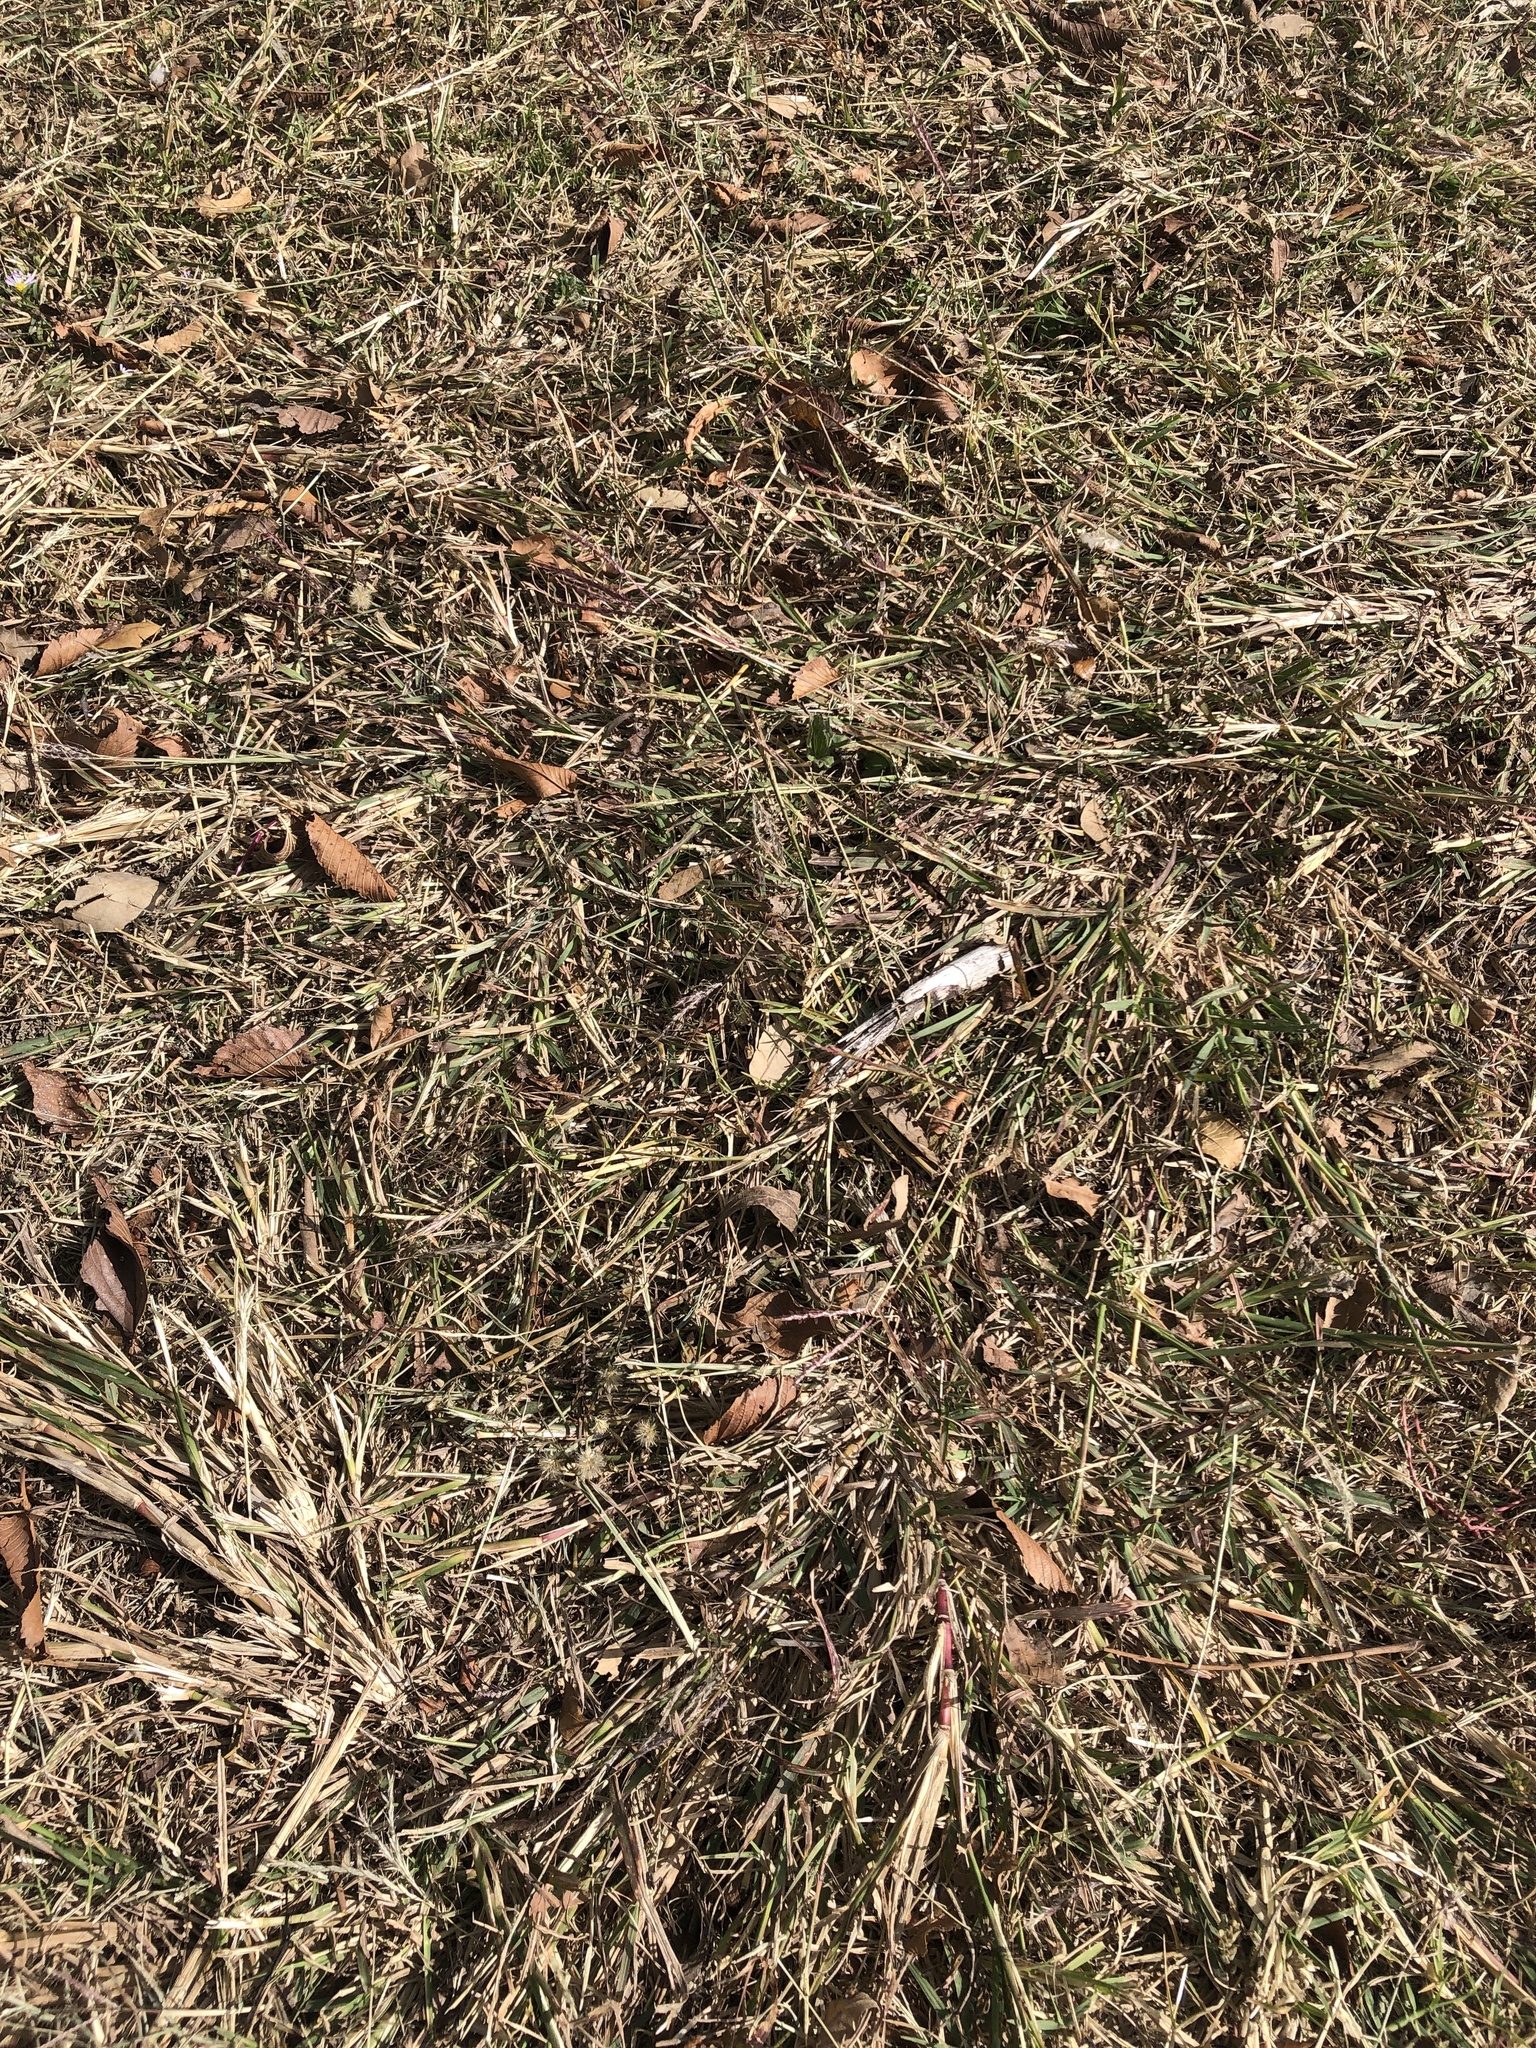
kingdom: Plantae
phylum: Tracheophyta
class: Liliopsida
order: Poales
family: Poaceae
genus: Bothriochloa
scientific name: Bothriochloa ischaemum
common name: Yellow bluestem
